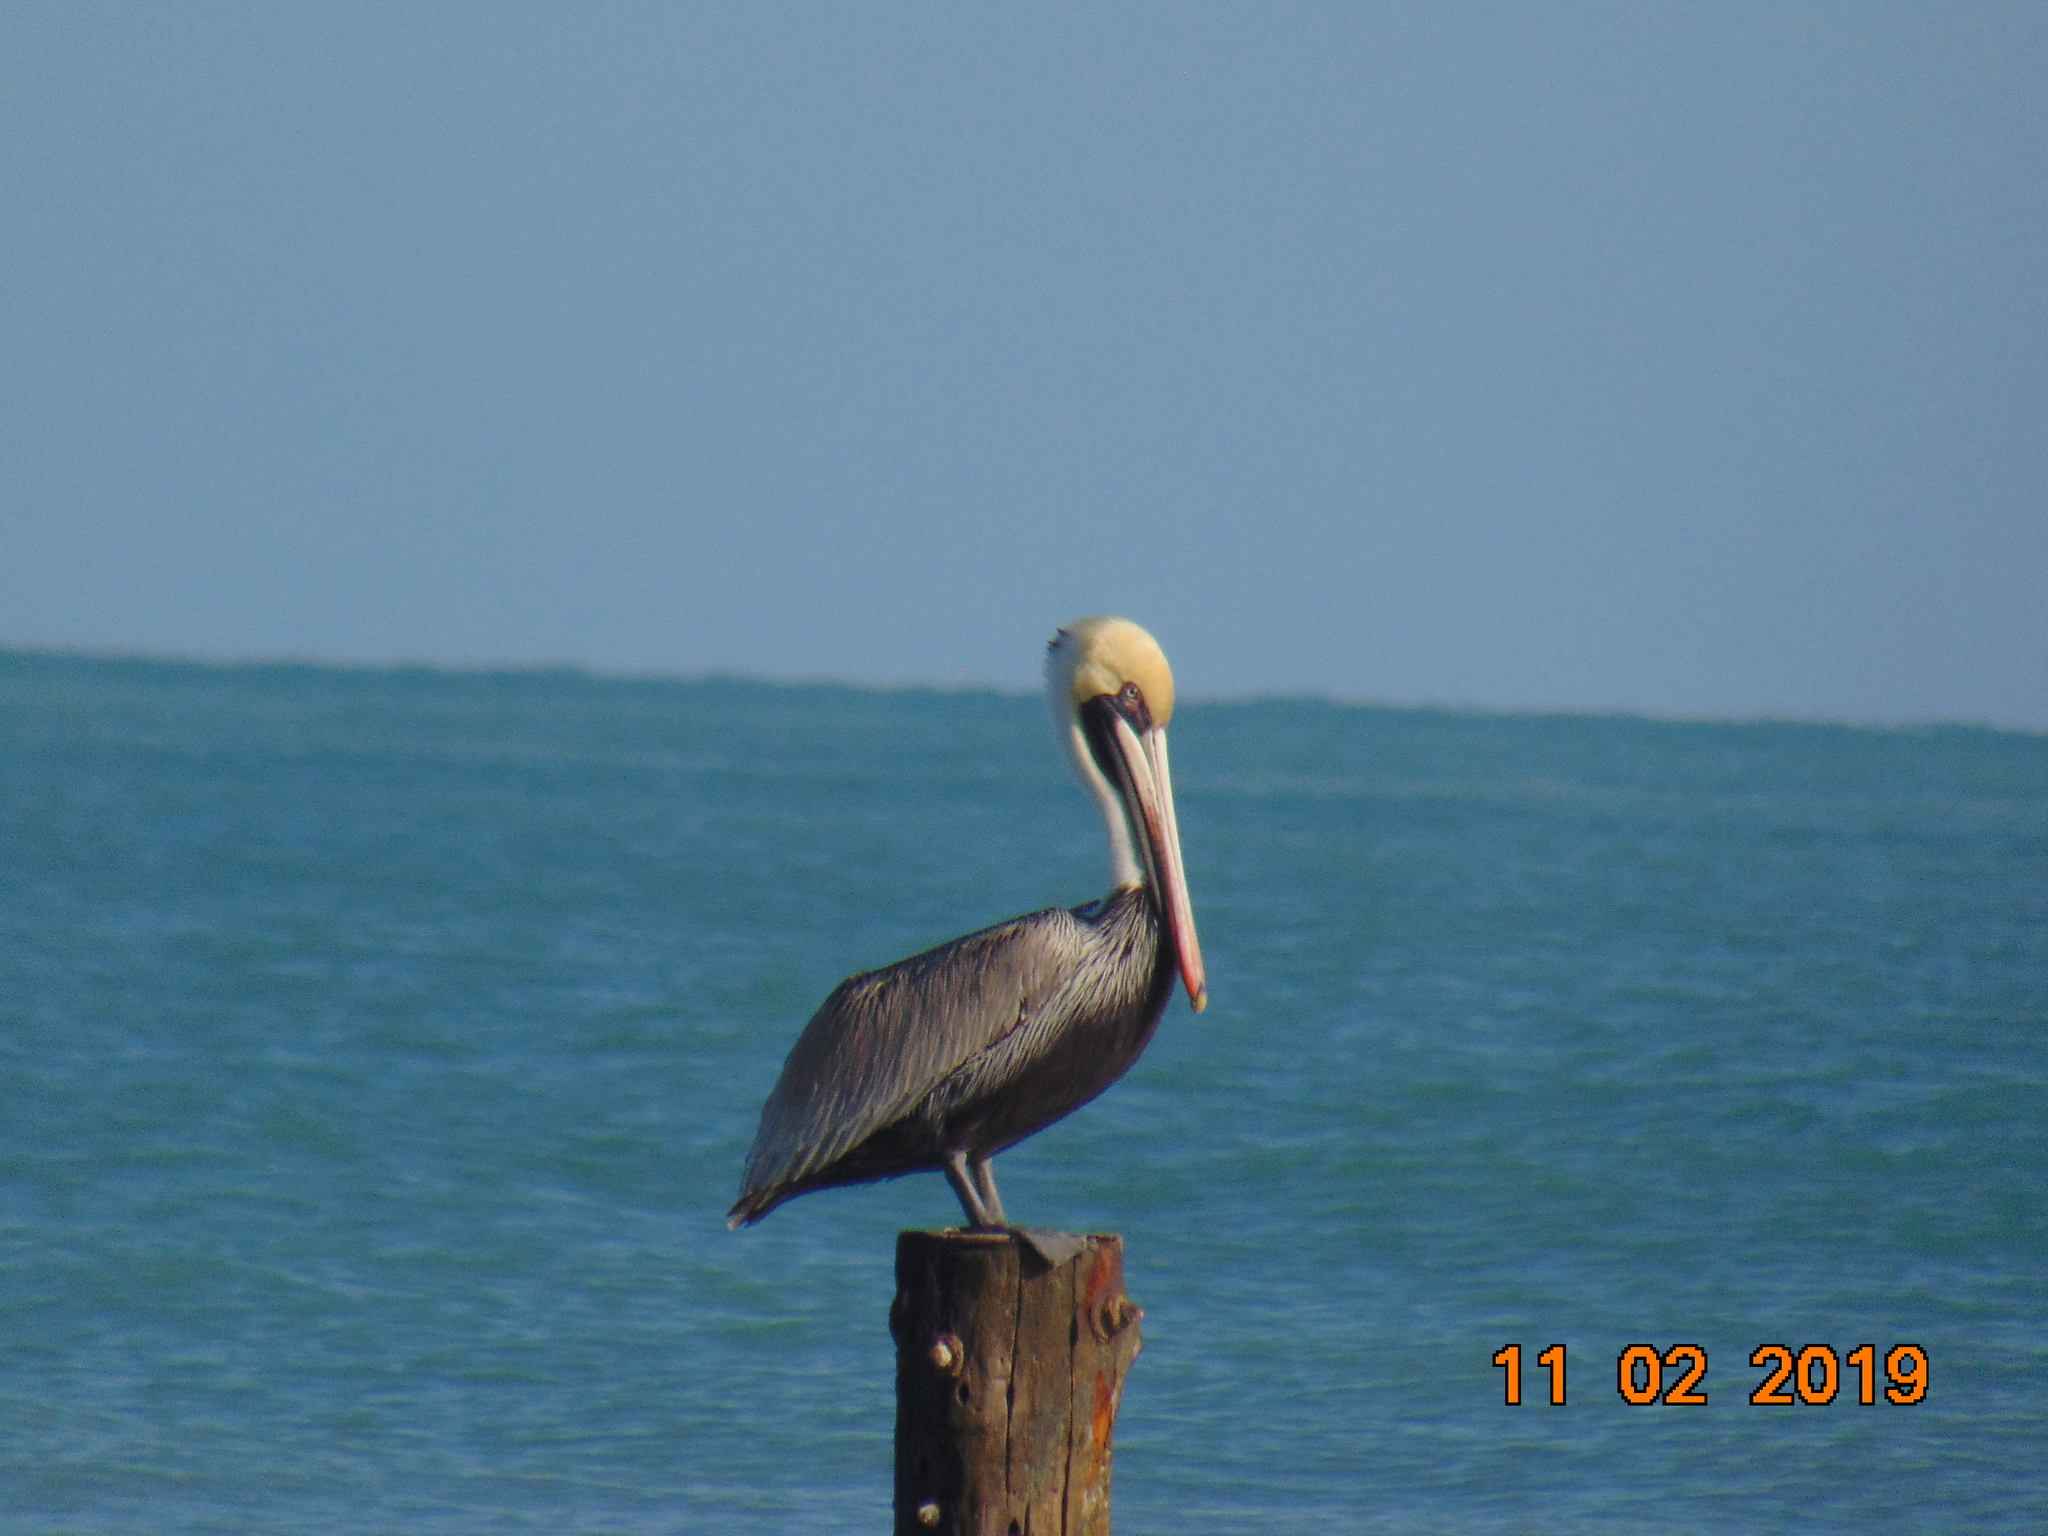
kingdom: Animalia
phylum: Chordata
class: Aves
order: Pelecaniformes
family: Pelecanidae
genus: Pelecanus
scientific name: Pelecanus occidentalis
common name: Brown pelican
